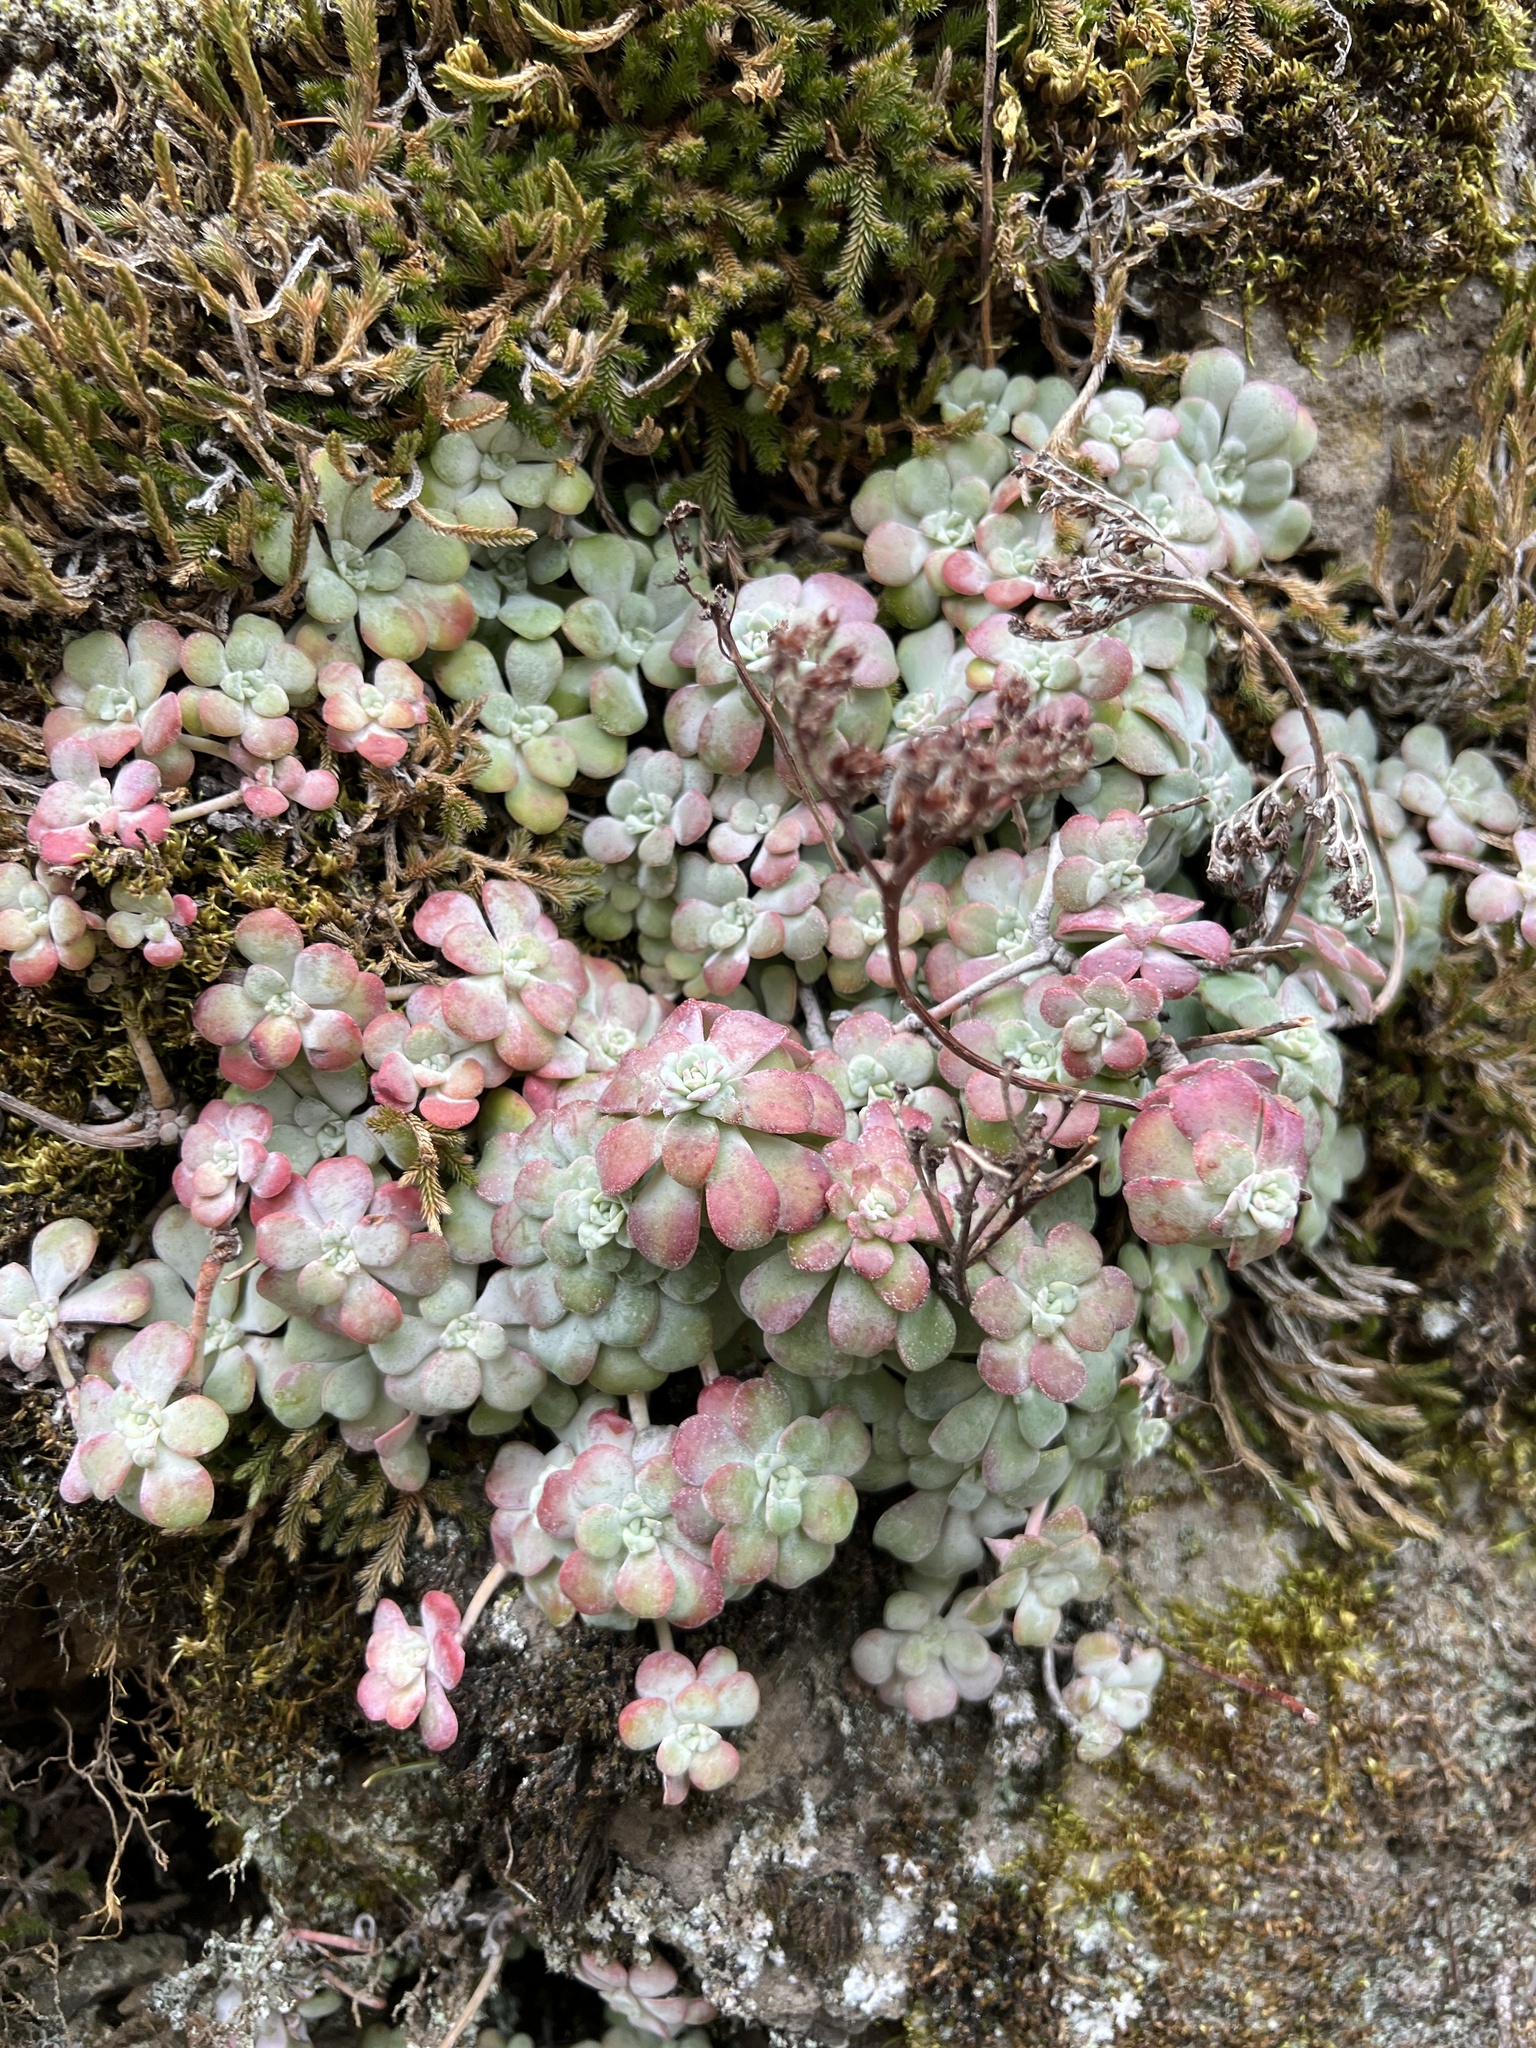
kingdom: Plantae
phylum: Tracheophyta
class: Magnoliopsida
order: Saxifragales
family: Crassulaceae
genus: Sedum
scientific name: Sedum spathulifolium
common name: Colorado stonecrop
